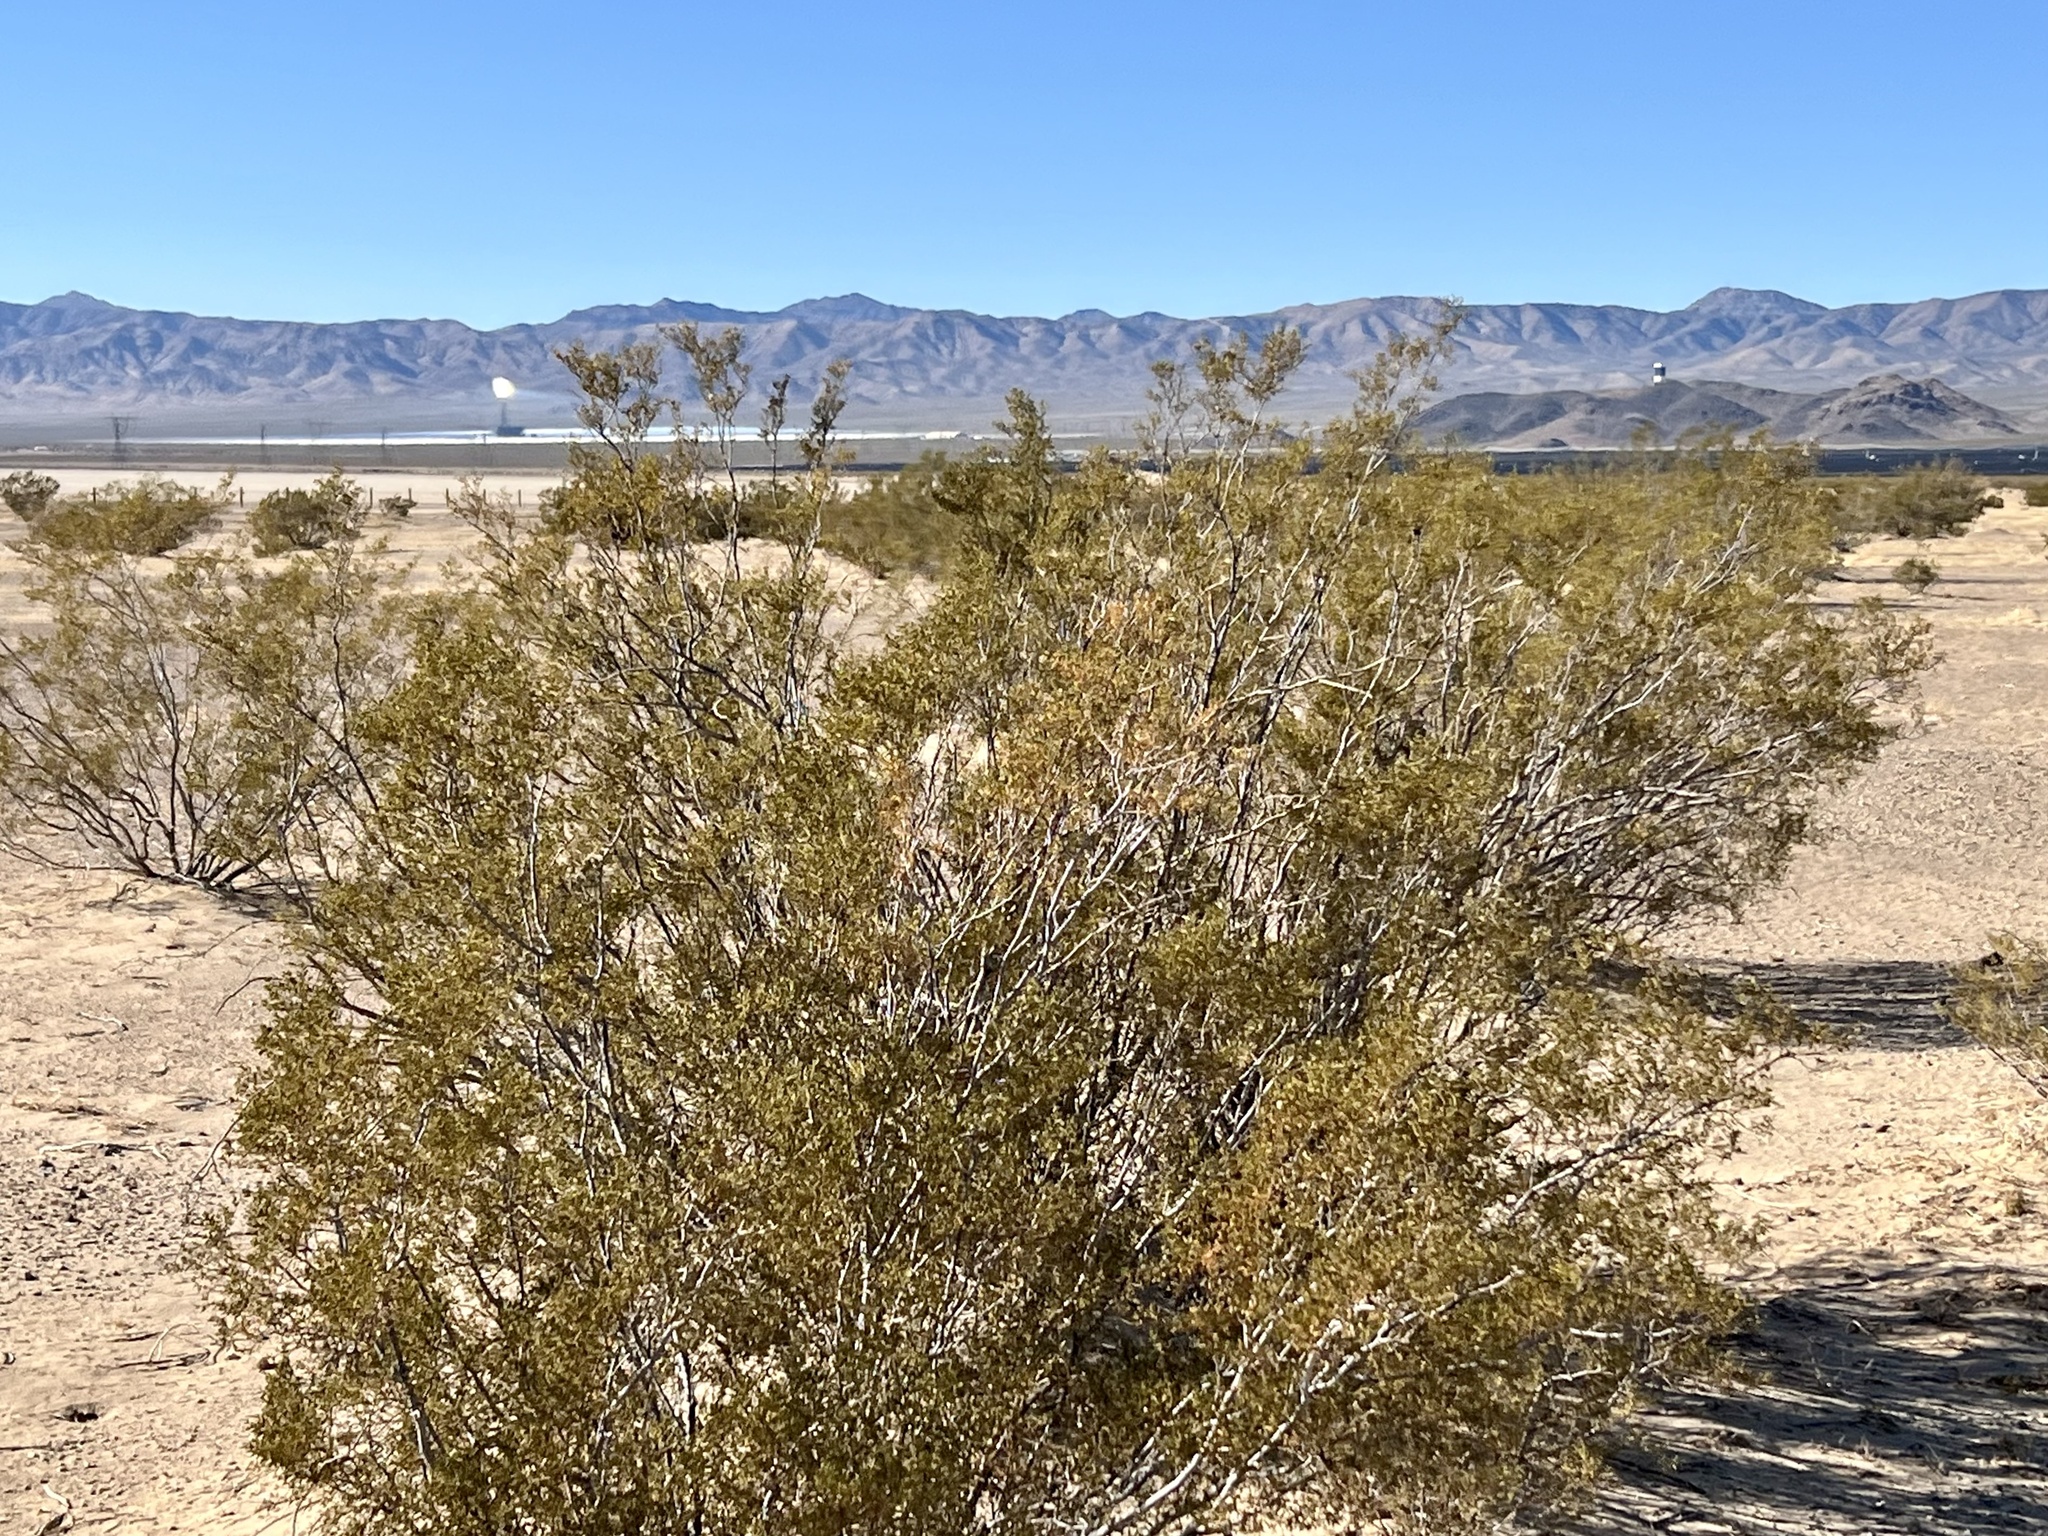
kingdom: Plantae
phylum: Tracheophyta
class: Magnoliopsida
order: Zygophyllales
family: Zygophyllaceae
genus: Larrea
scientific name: Larrea tridentata
